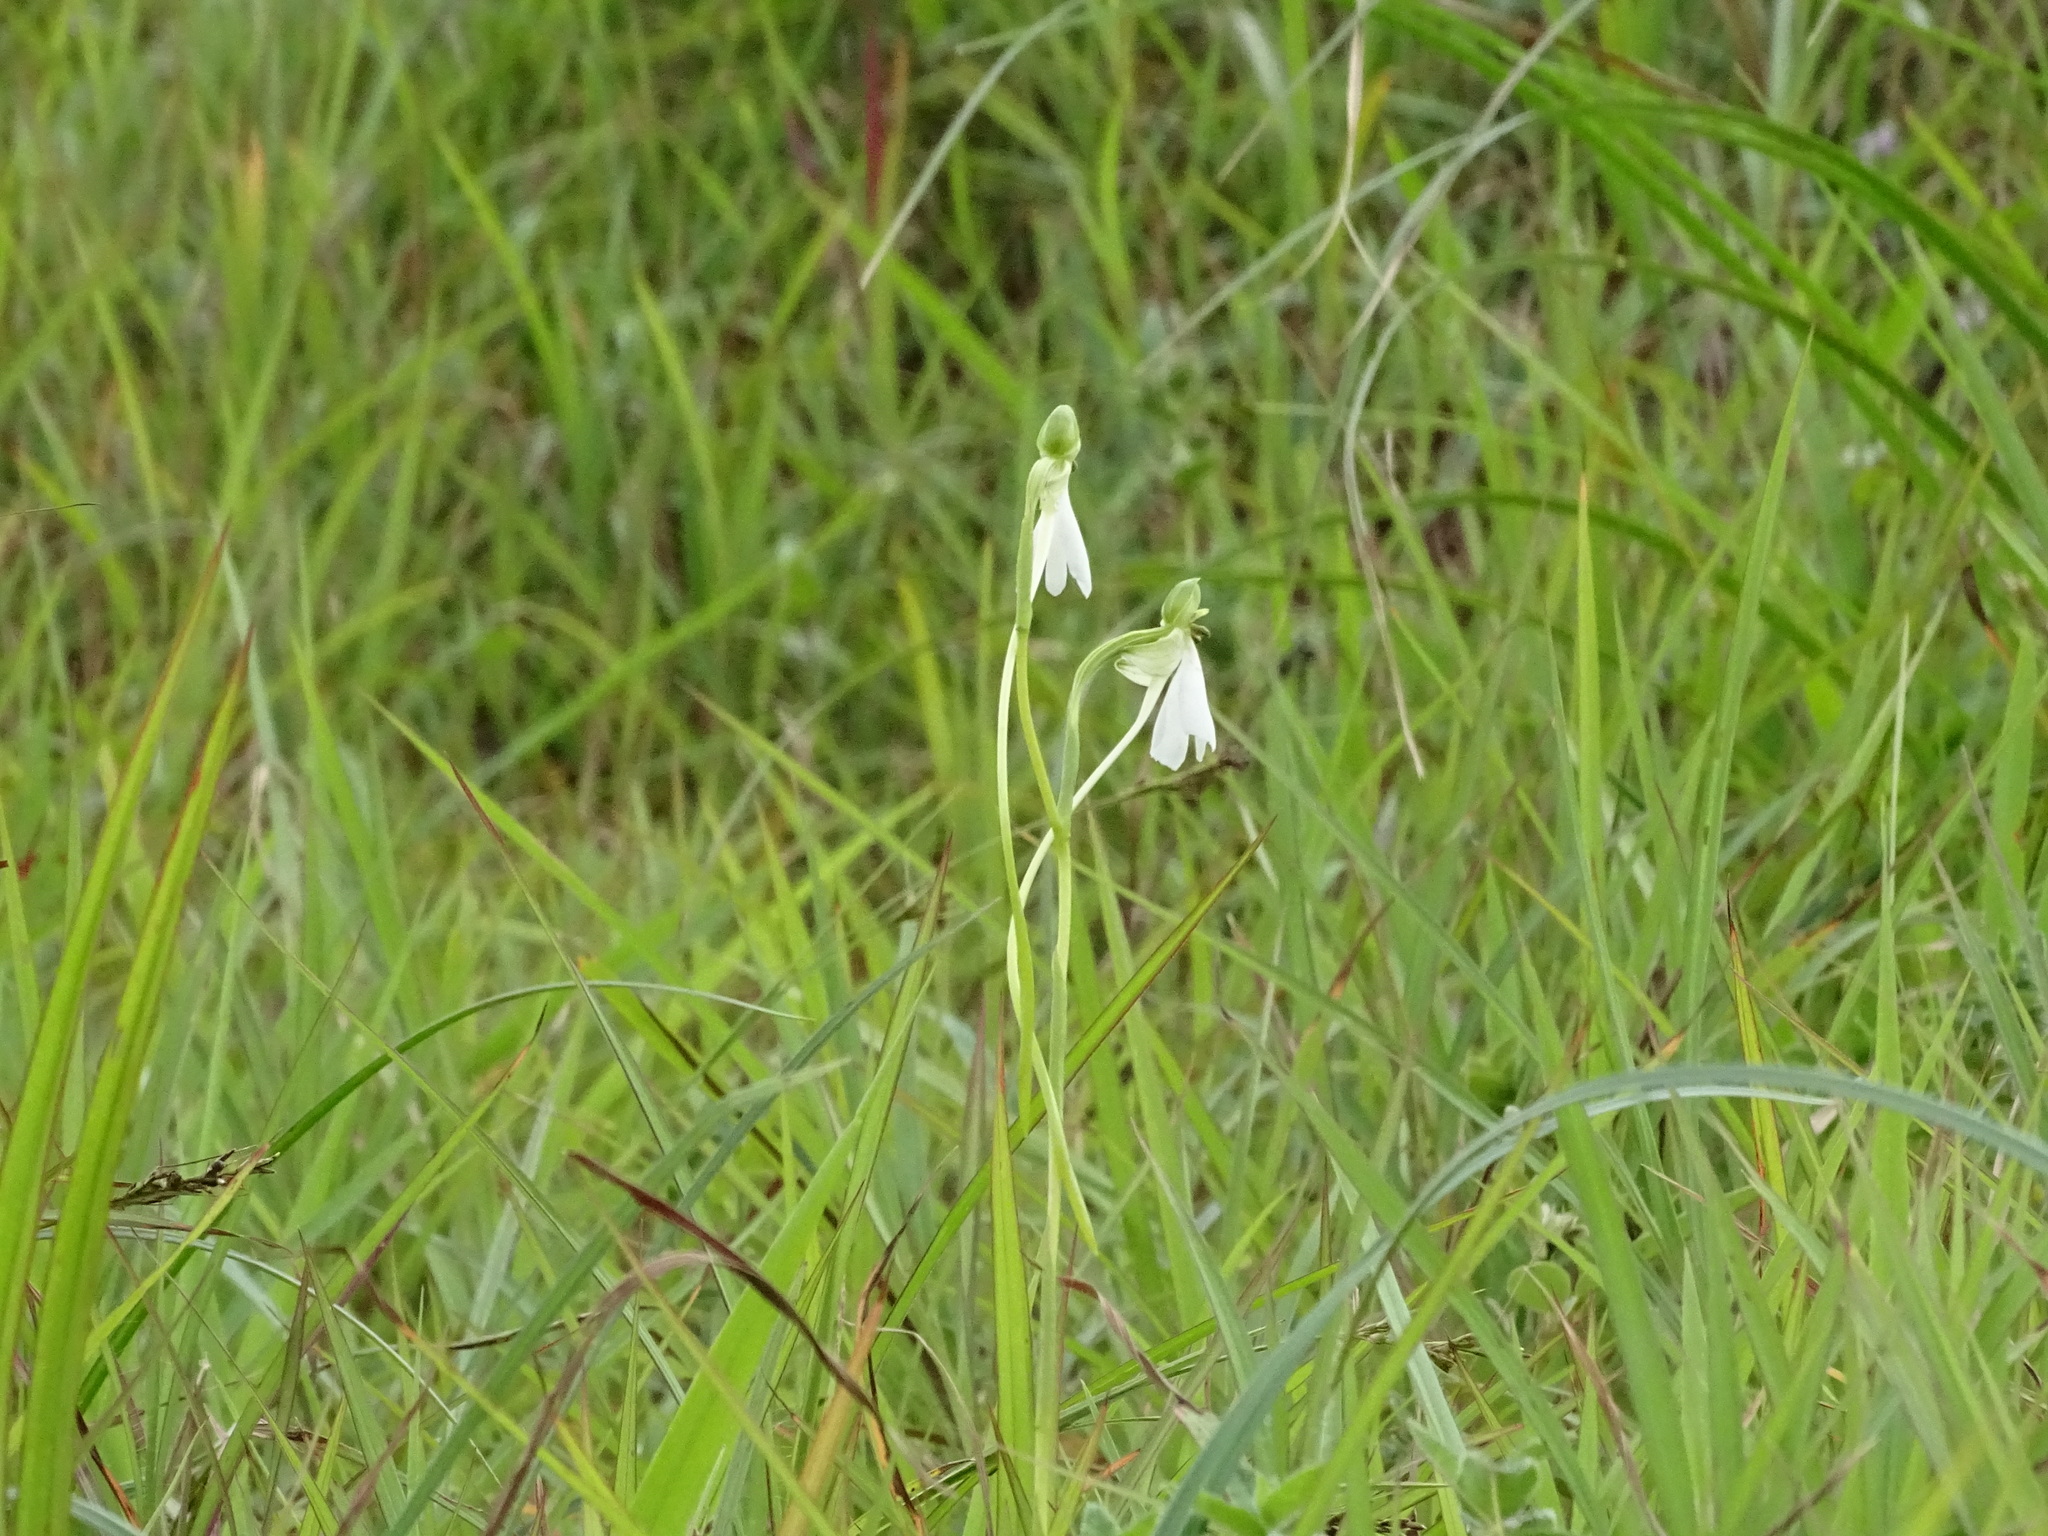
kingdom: Plantae
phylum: Tracheophyta
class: Liliopsida
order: Asparagales
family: Orchidaceae
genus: Habenaria
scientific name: Habenaria longicorniculata
